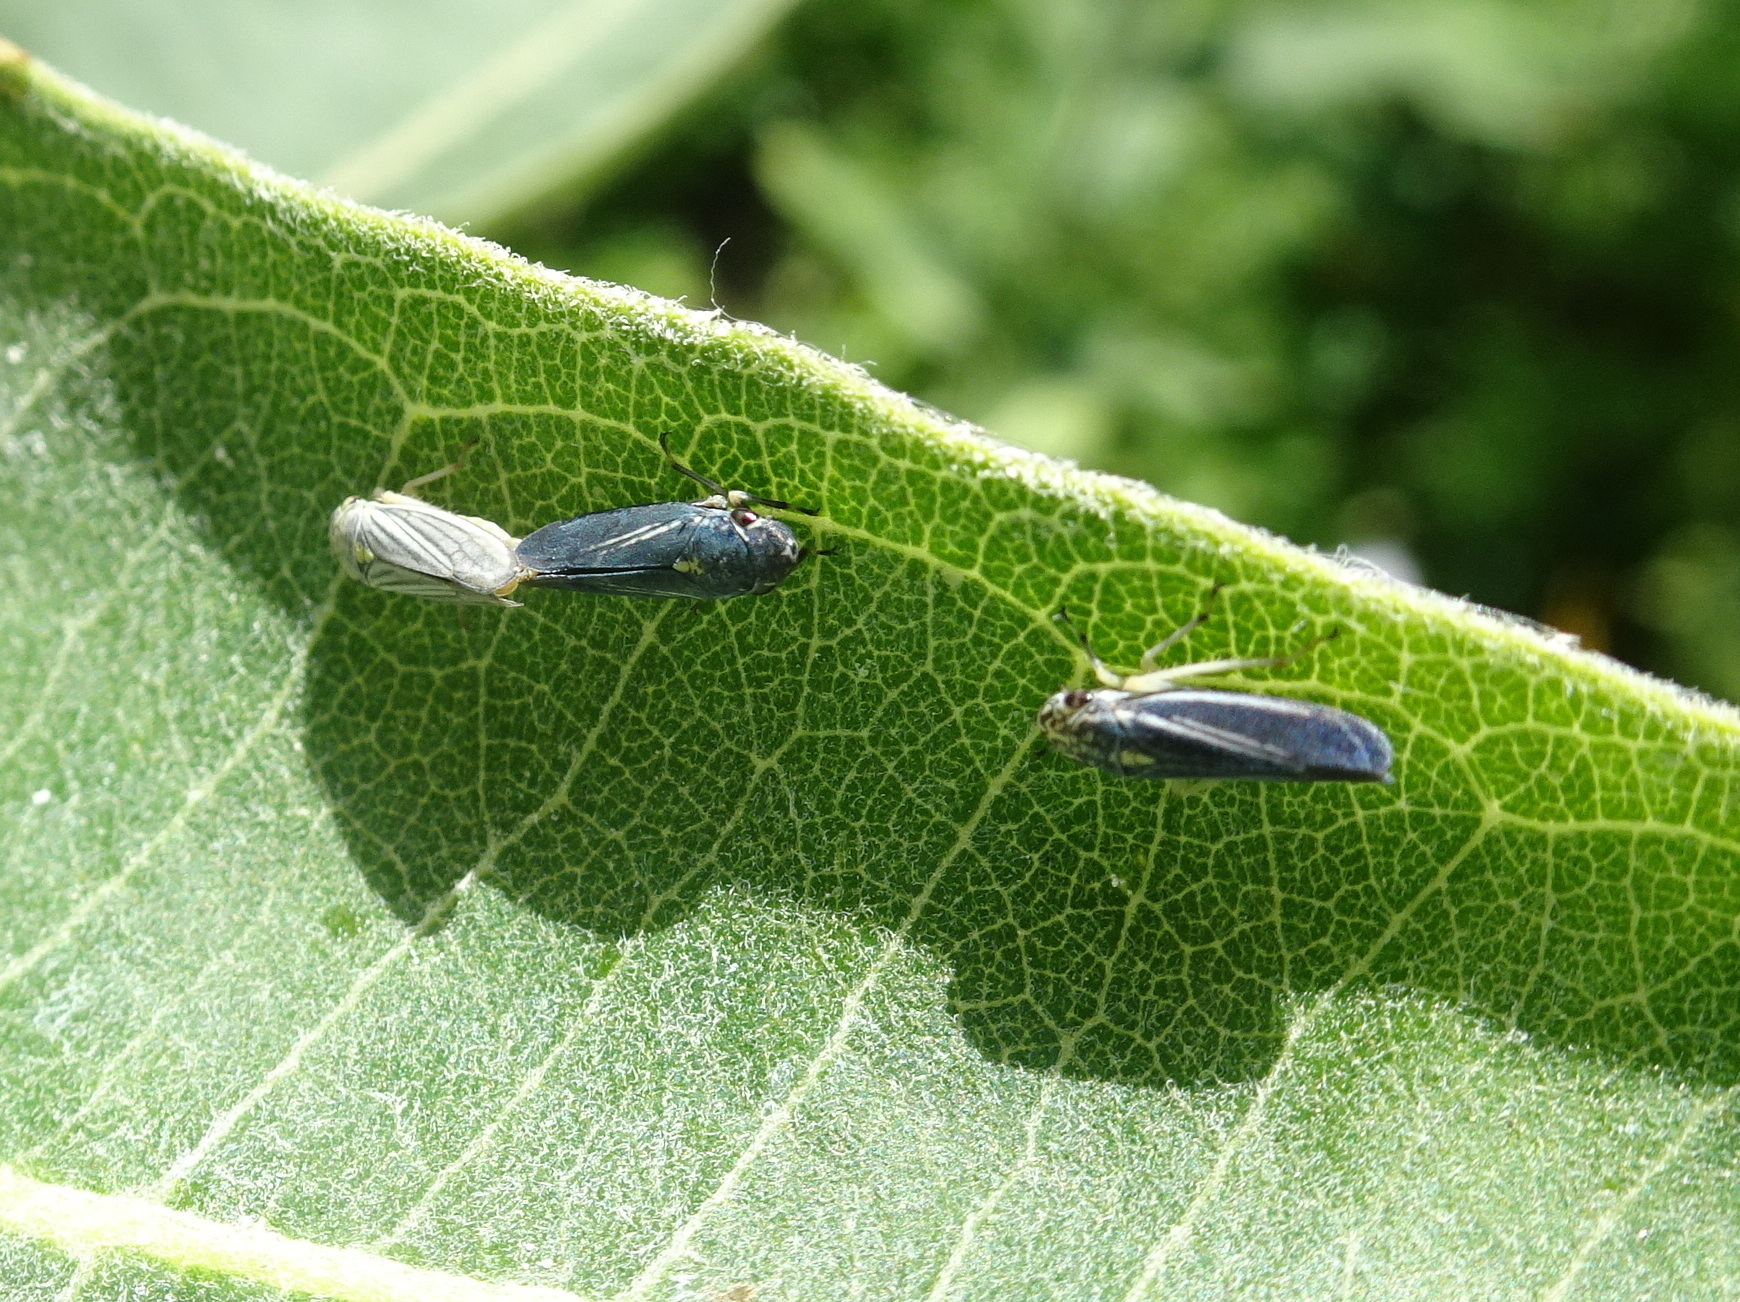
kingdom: Animalia
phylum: Arthropoda
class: Insecta
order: Hemiptera
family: Cicadellidae
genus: Neokolla
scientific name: Neokolla hieroglyphica
